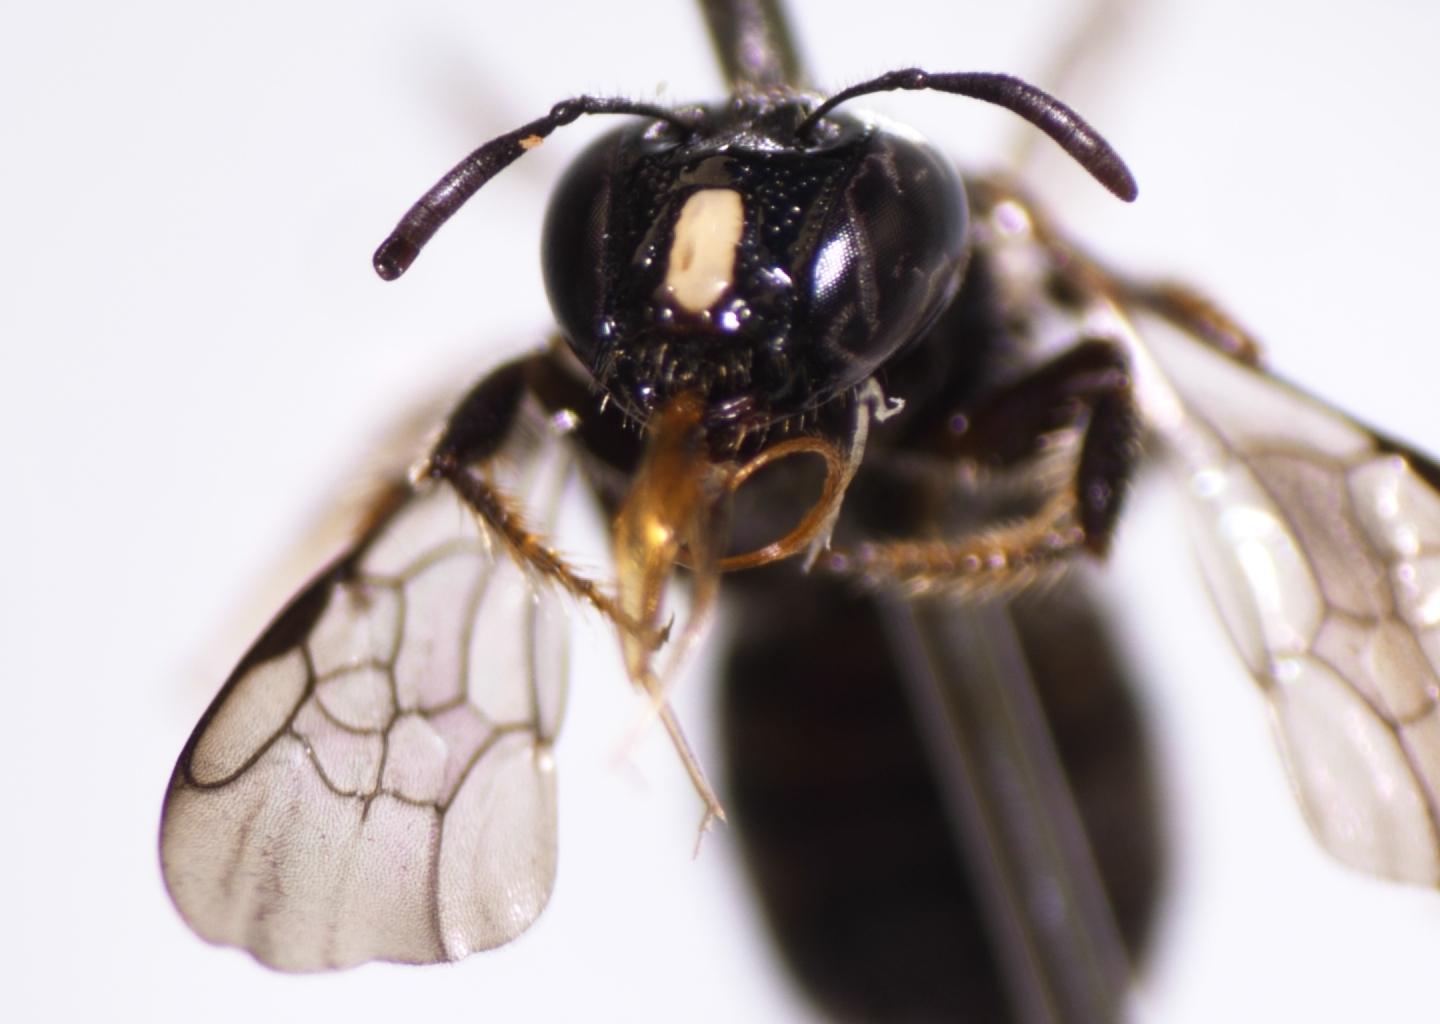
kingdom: Animalia
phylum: Arthropoda
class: Insecta
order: Hymenoptera
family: Apidae
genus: Ceratina
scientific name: Ceratina dentipes
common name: Small carpenter bee
